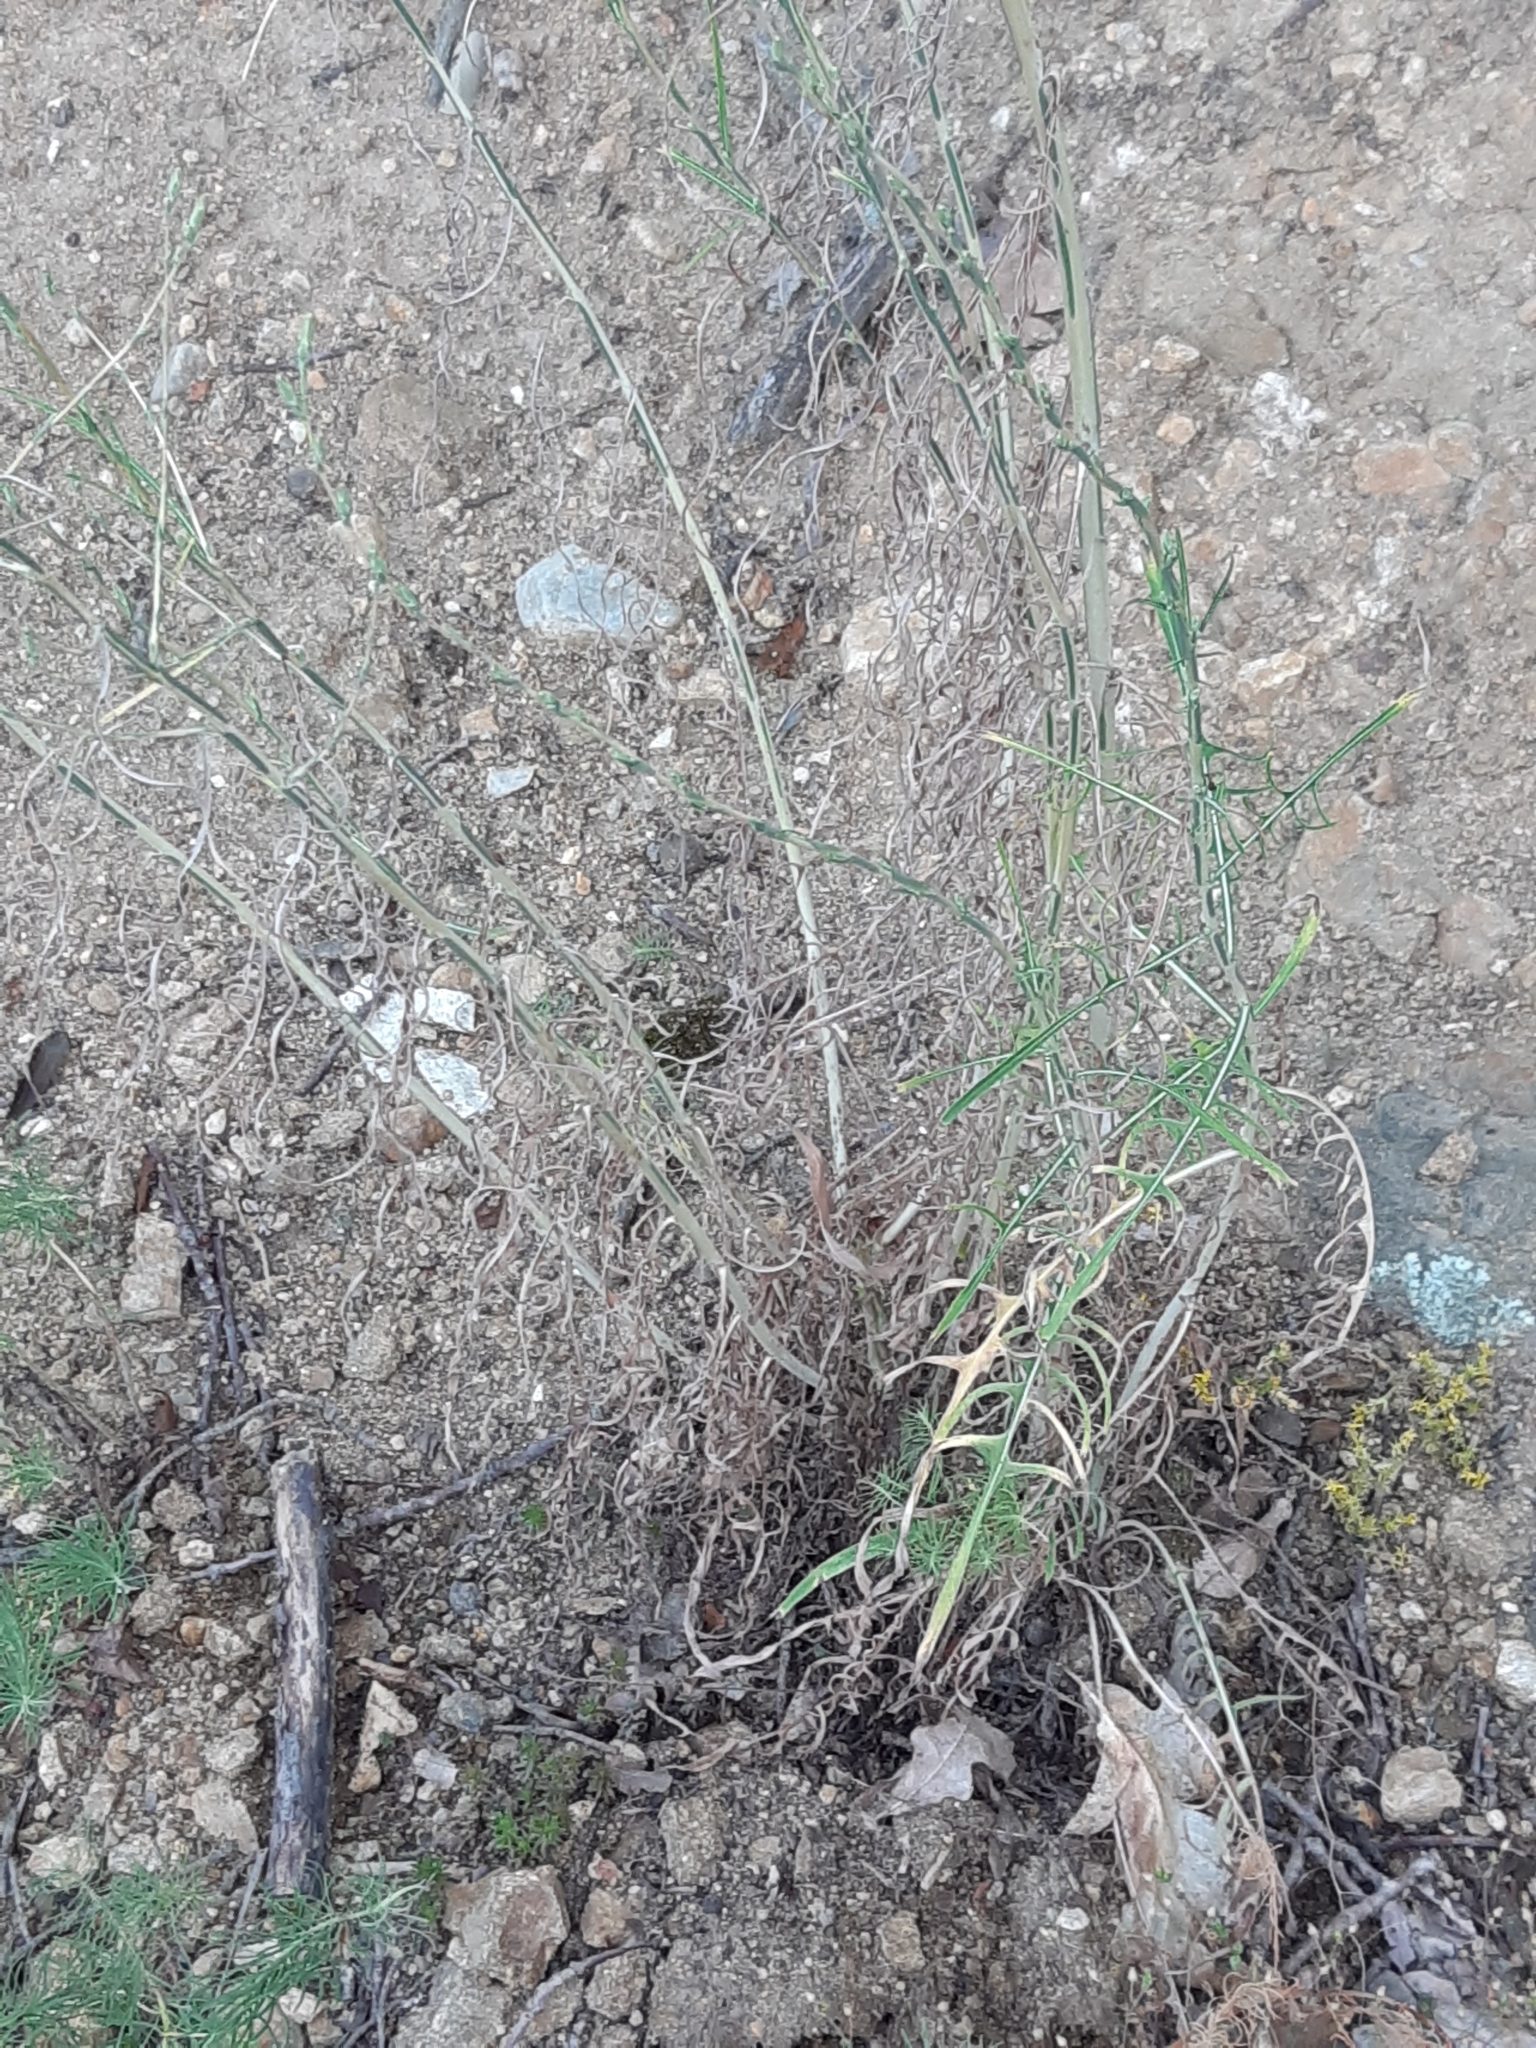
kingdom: Plantae
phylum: Tracheophyta
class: Magnoliopsida
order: Asterales
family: Asteraceae
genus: Lactuca
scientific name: Lactuca viminea
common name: Pliant lettuce
